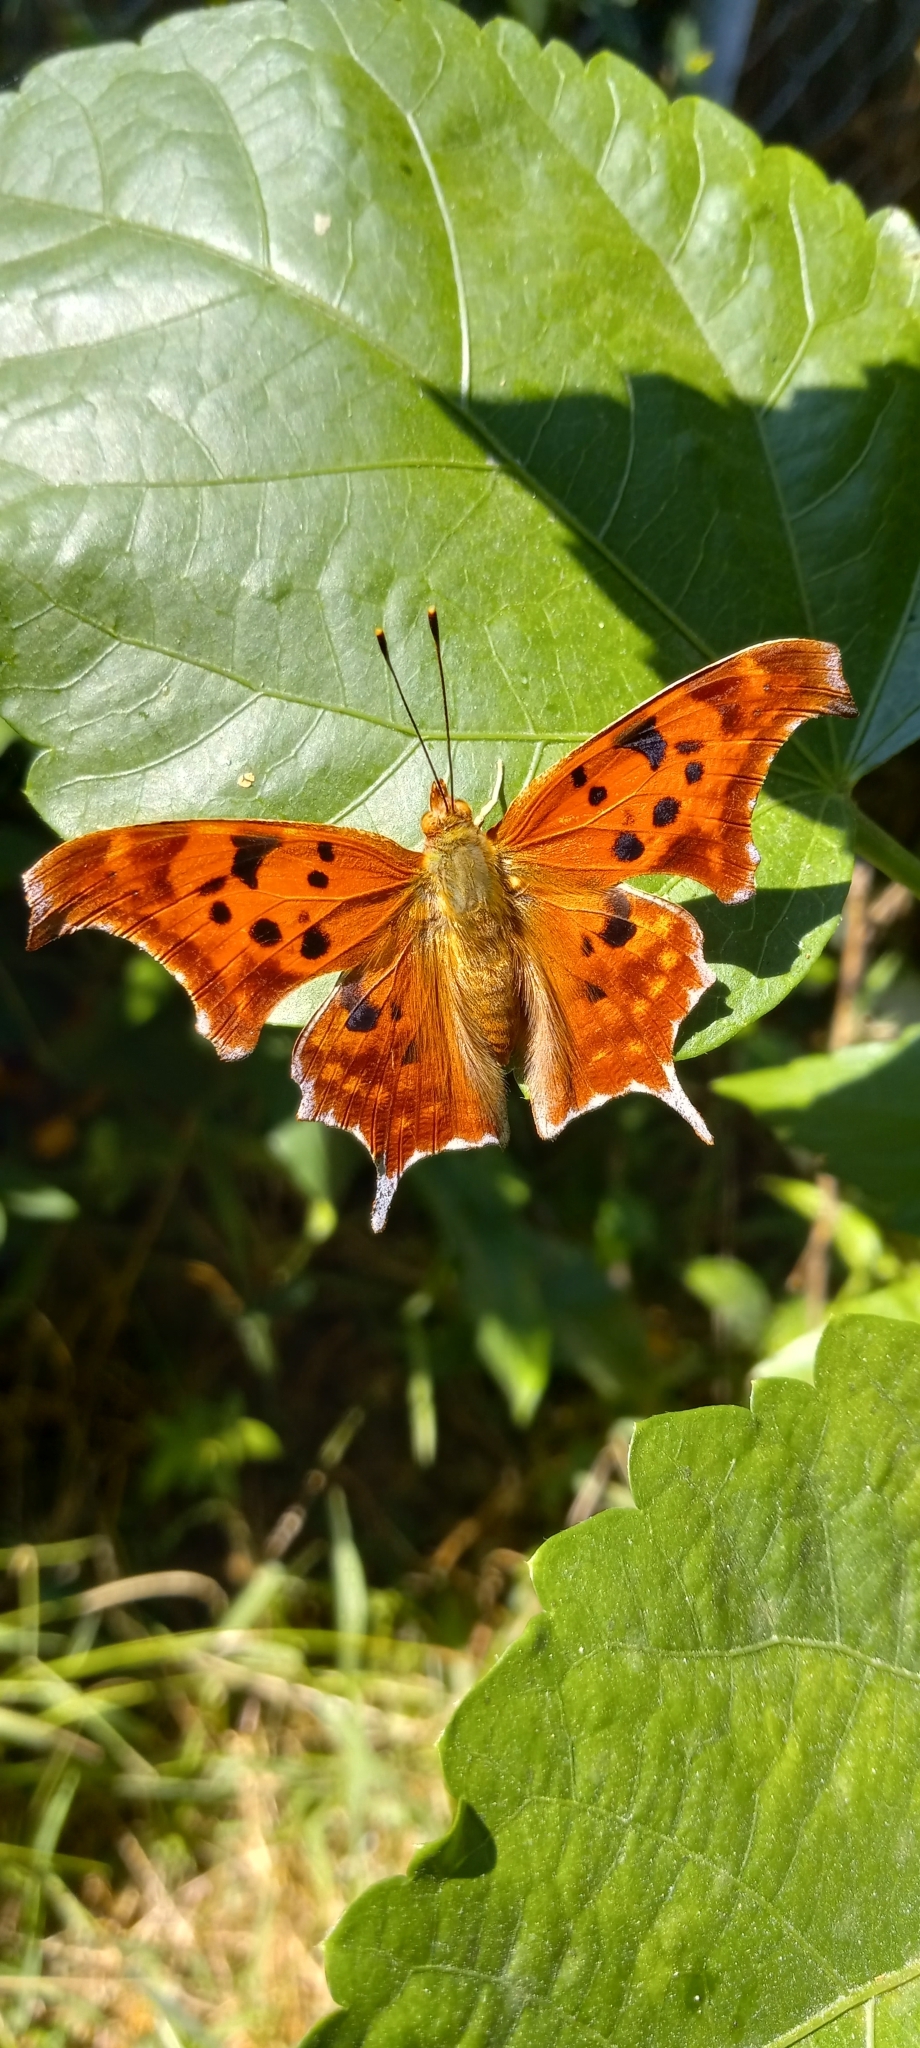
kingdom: Animalia
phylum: Arthropoda
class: Insecta
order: Lepidoptera
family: Nymphalidae
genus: Polygonia
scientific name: Polygonia interrogationis
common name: Question mark
